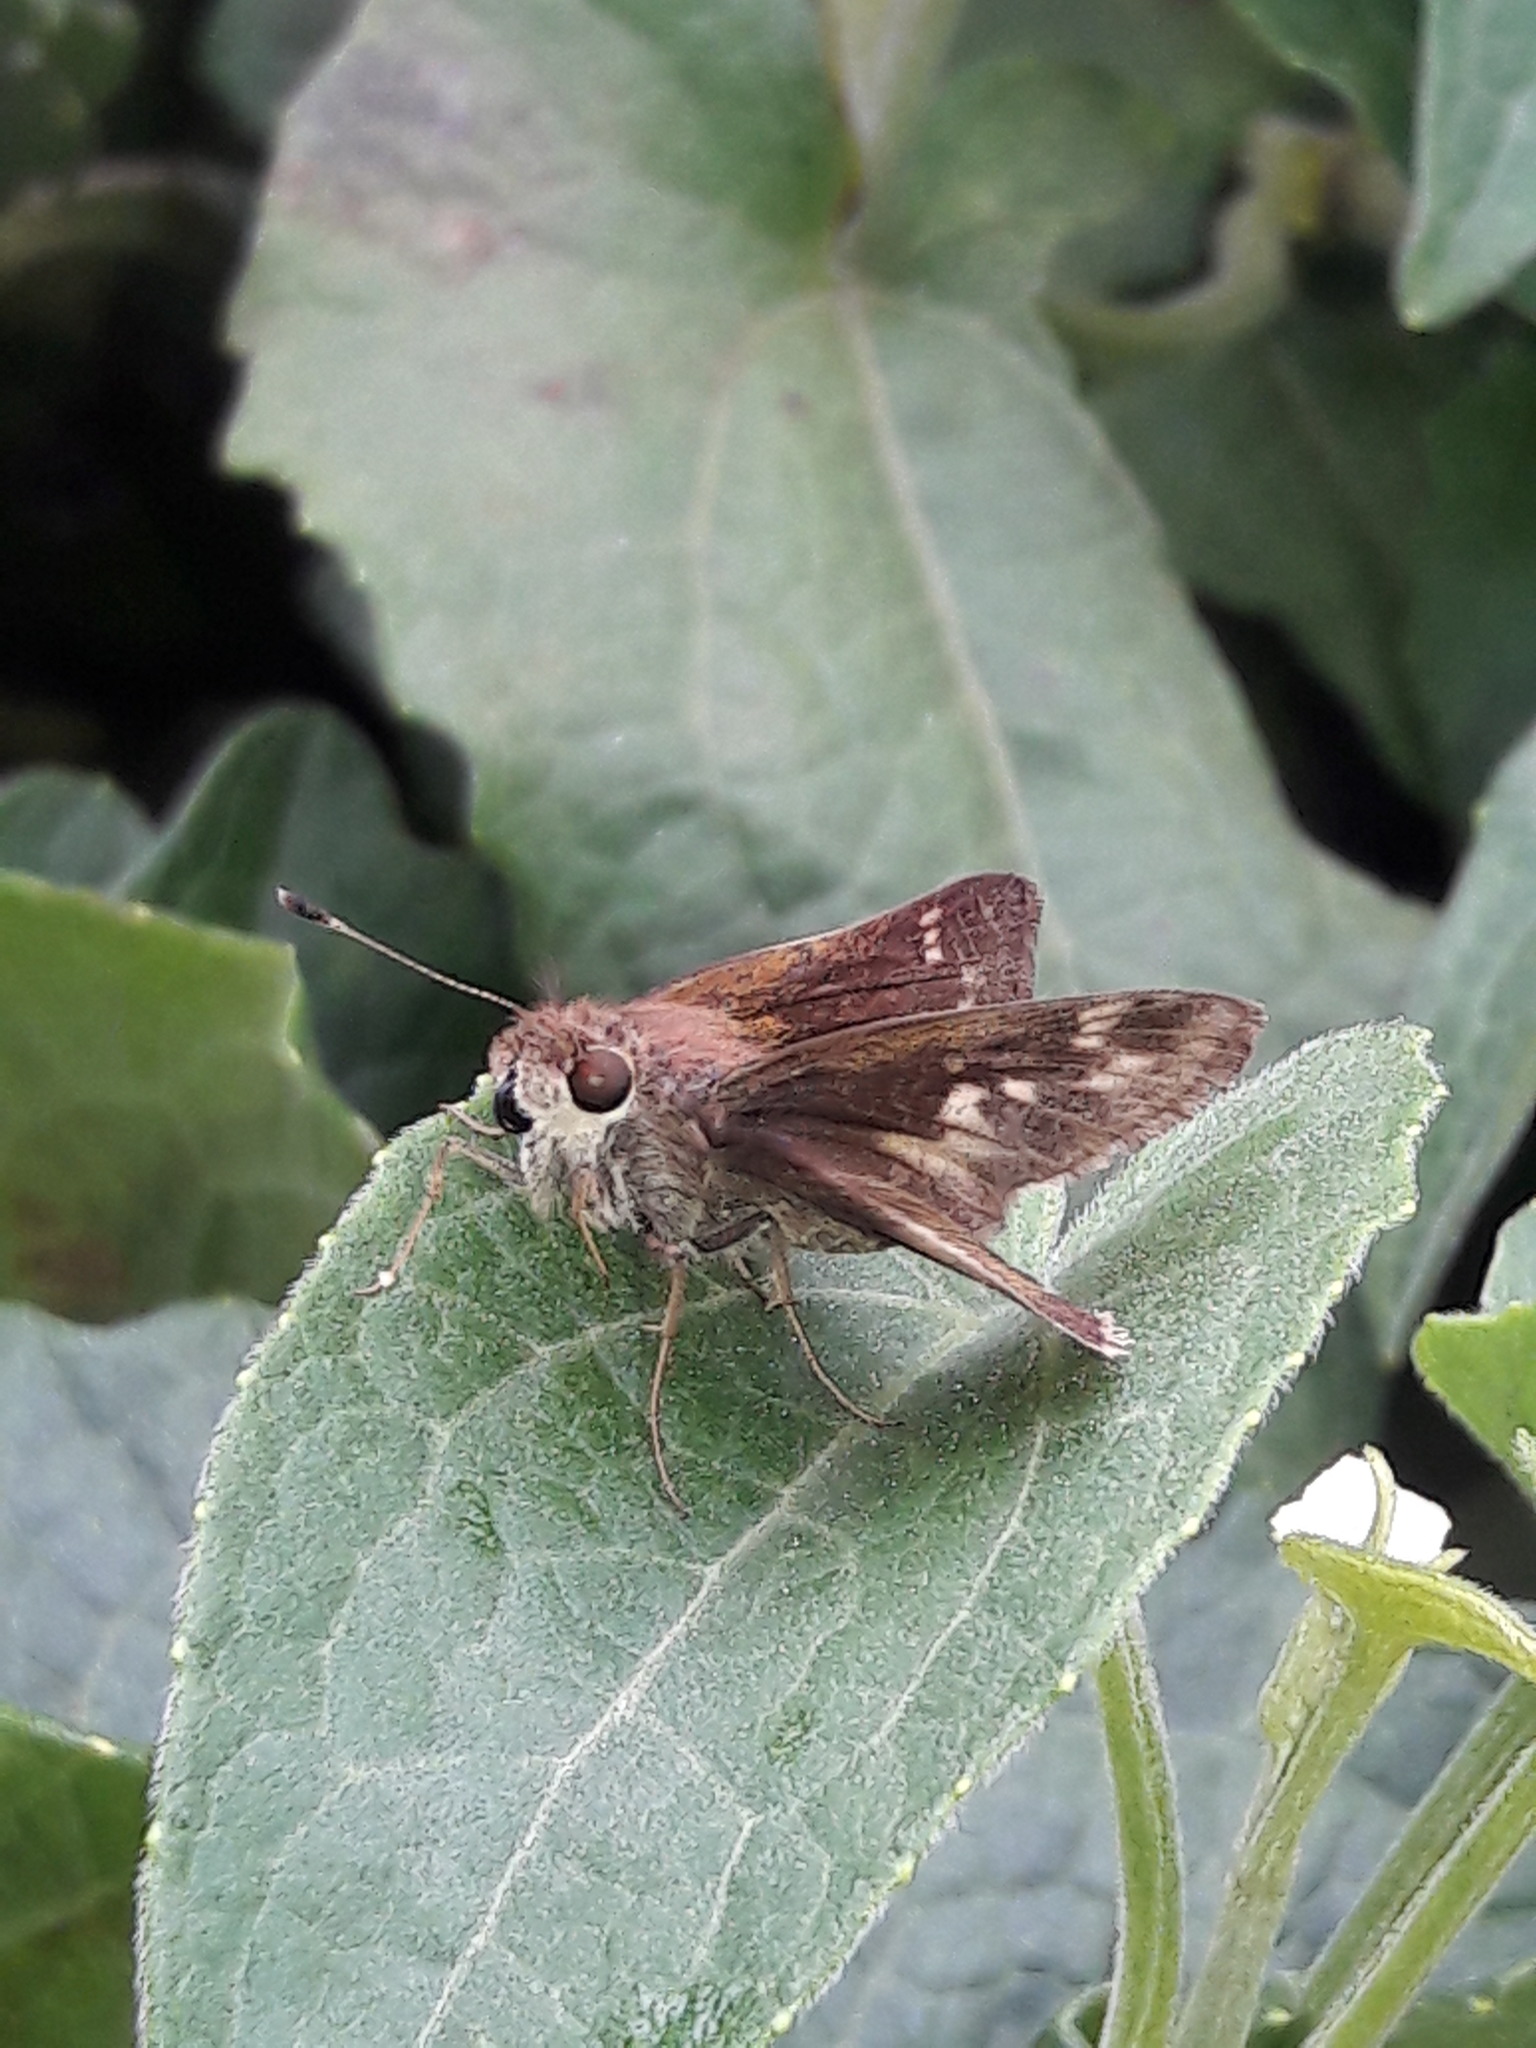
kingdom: Animalia
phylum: Arthropoda
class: Insecta
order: Lepidoptera
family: Hesperiidae
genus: Pompeius
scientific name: Pompeius pompeius
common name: Pompeius skipper
